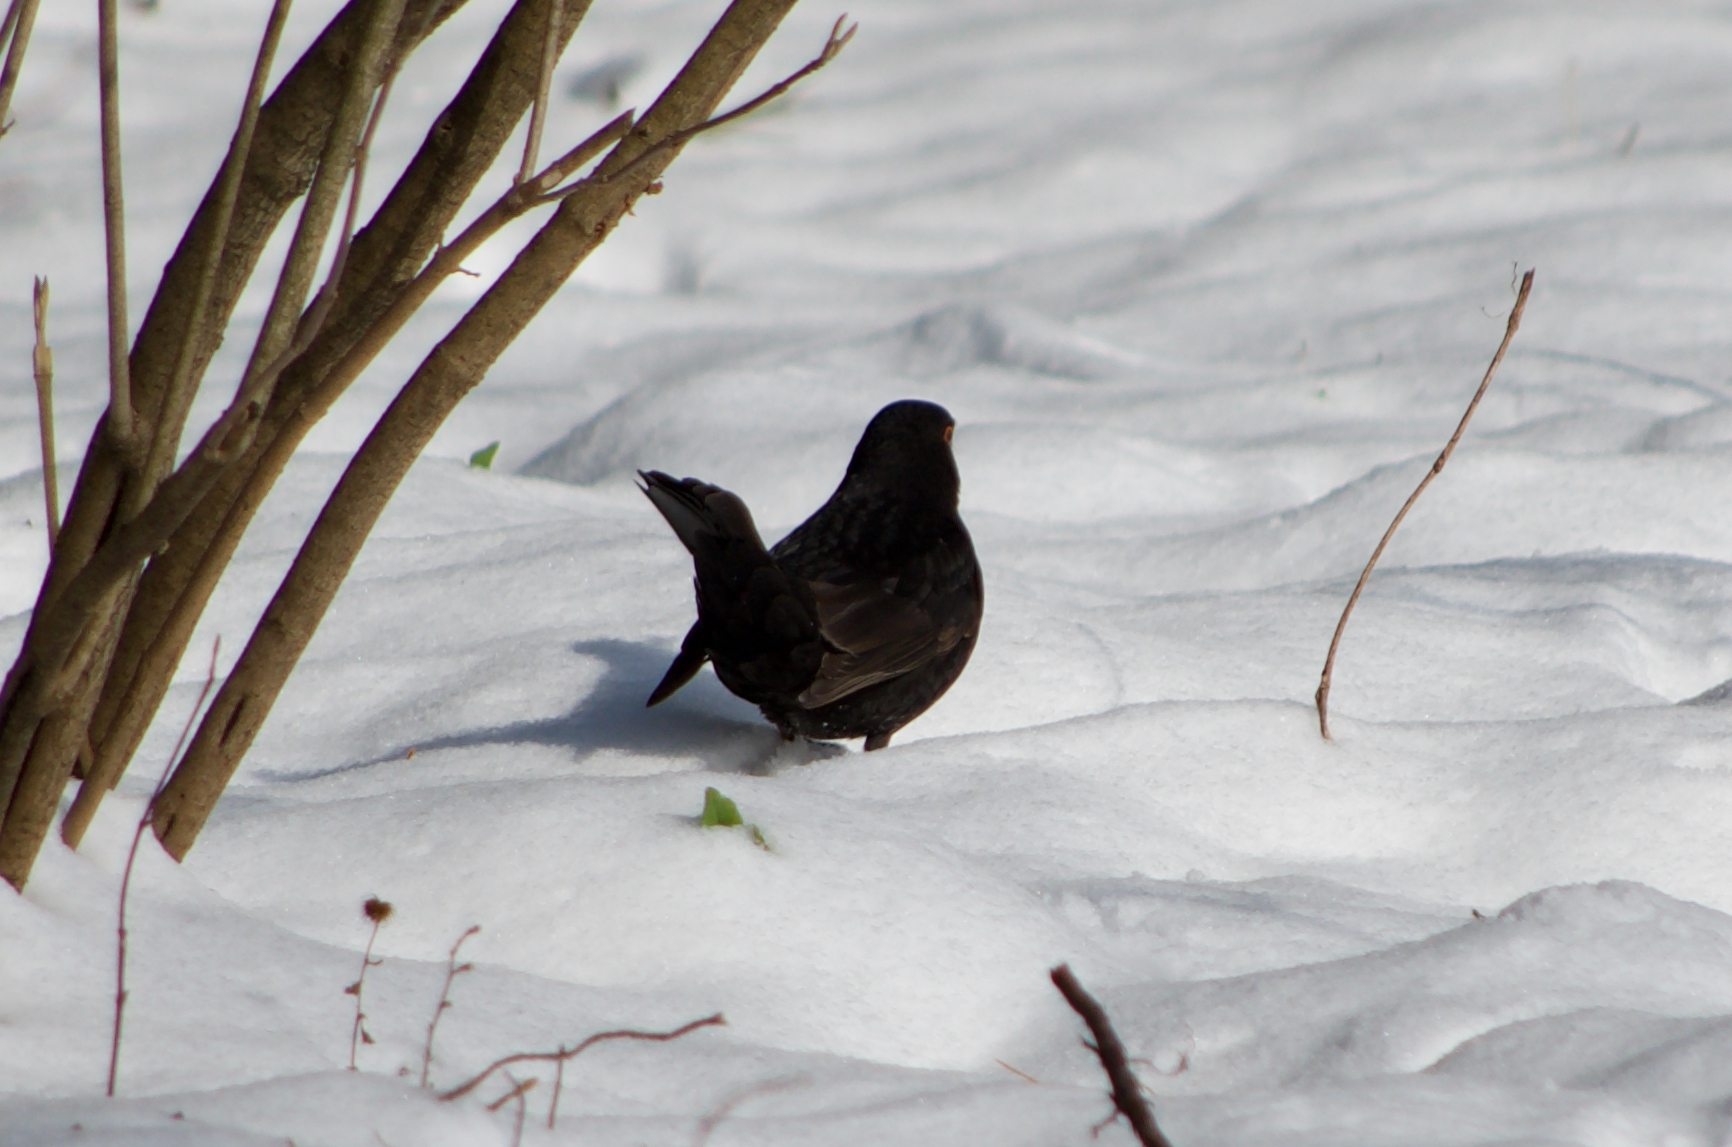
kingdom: Animalia
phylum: Chordata
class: Aves
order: Passeriformes
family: Turdidae
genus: Turdus
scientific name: Turdus merula
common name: Common blackbird
